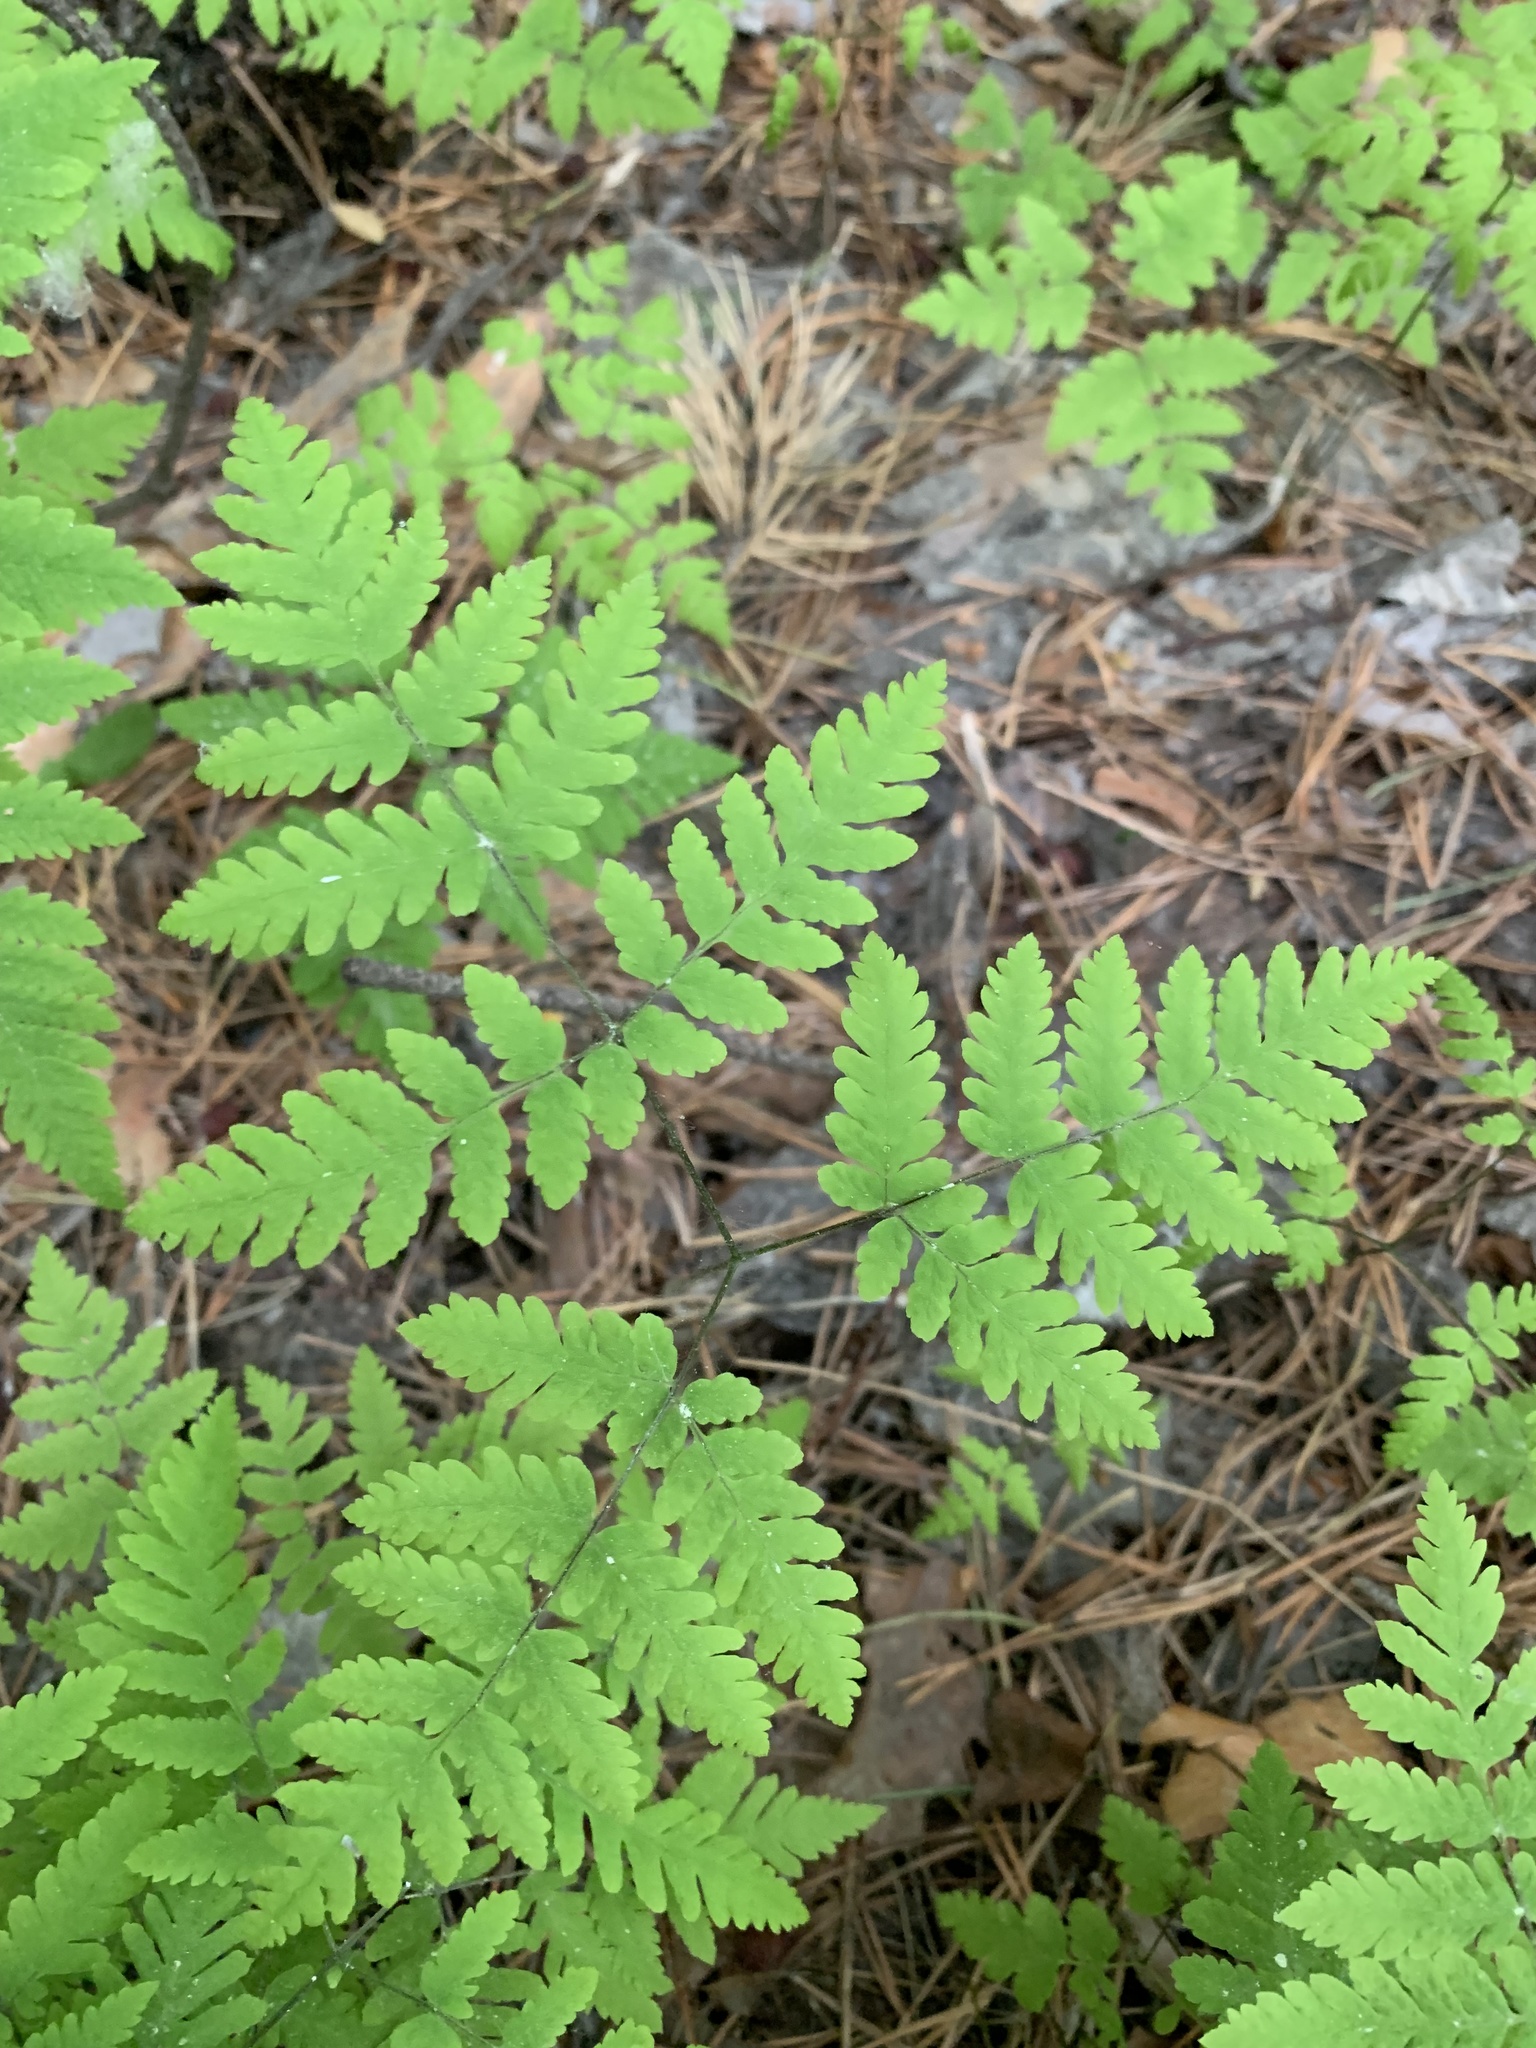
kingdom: Plantae
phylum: Tracheophyta
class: Polypodiopsida
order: Polypodiales
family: Cystopteridaceae
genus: Gymnocarpium
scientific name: Gymnocarpium dryopteris
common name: Oak fern
